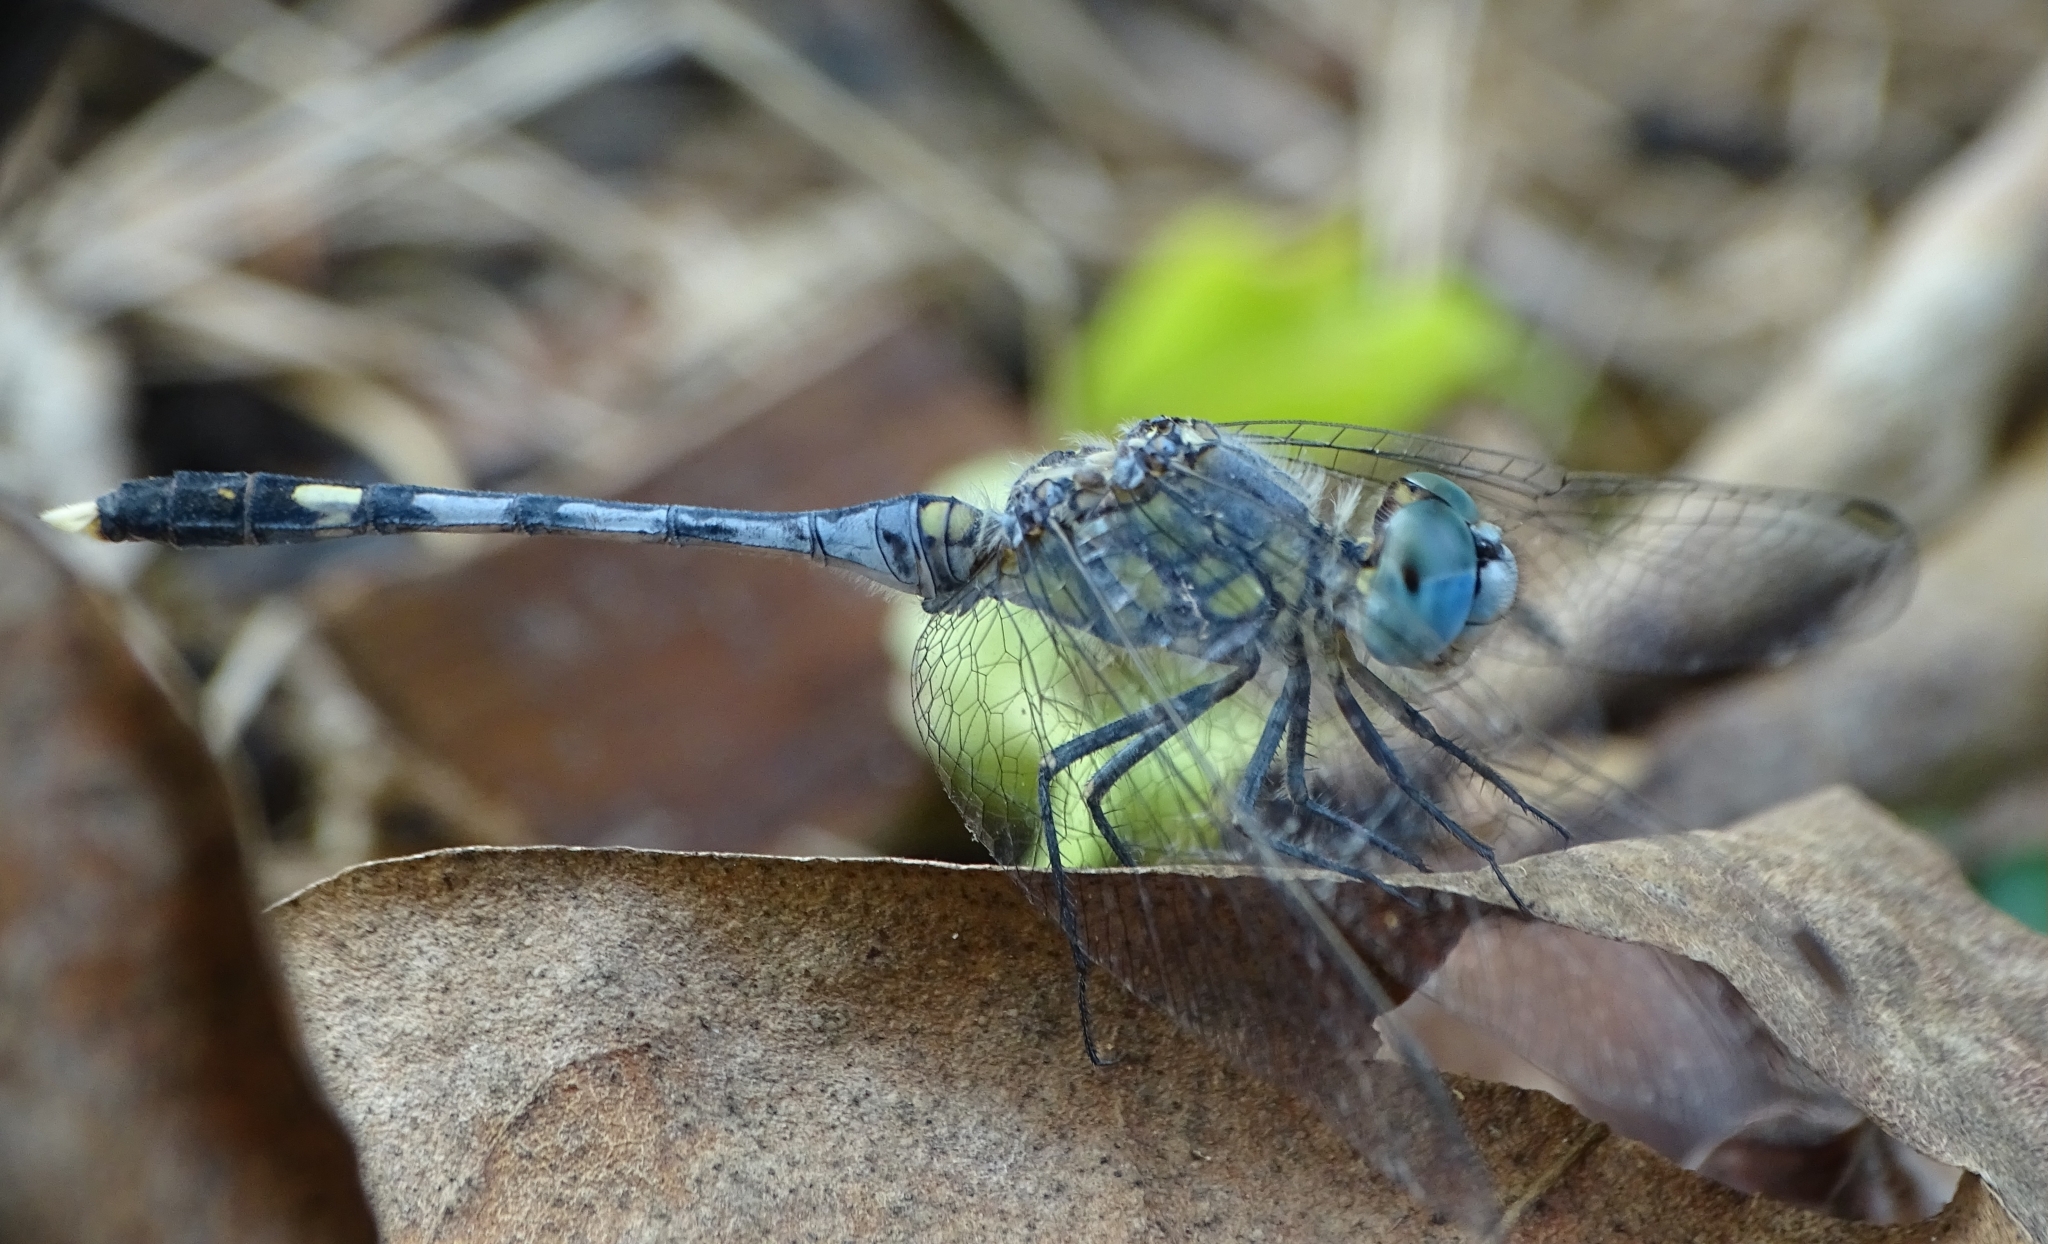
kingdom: Animalia
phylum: Arthropoda
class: Insecta
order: Odonata
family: Libellulidae
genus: Diplacodes
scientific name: Diplacodes trivialis
